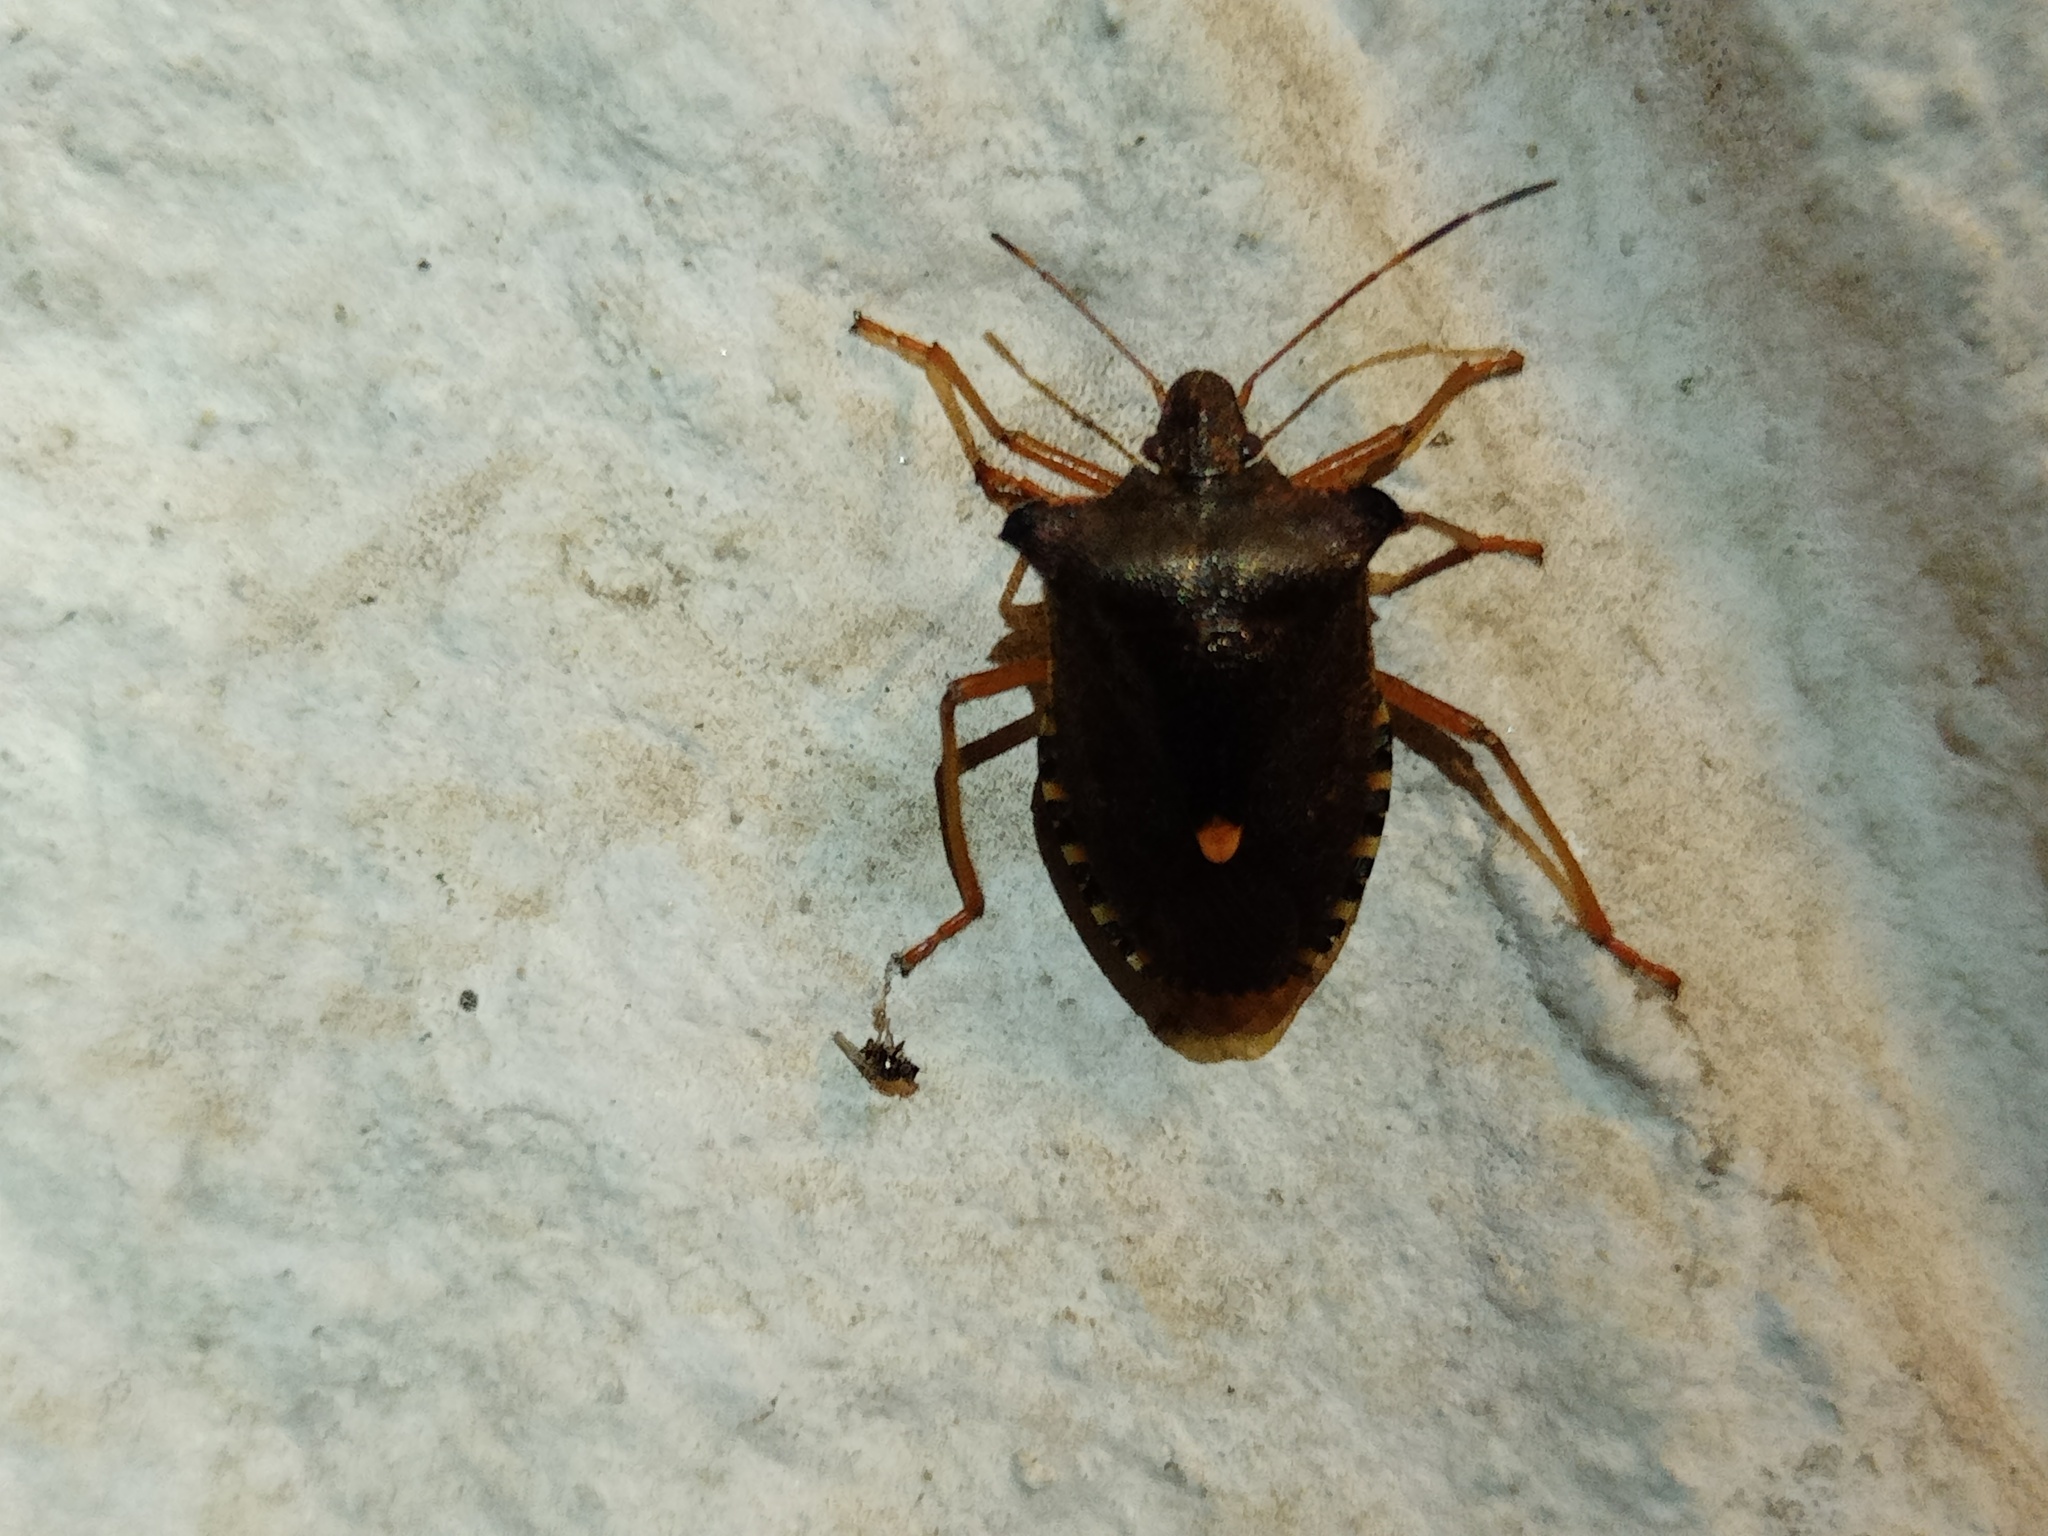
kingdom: Animalia
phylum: Arthropoda
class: Insecta
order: Hemiptera
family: Pentatomidae
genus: Pentatoma
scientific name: Pentatoma rufipes
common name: Forest bug
